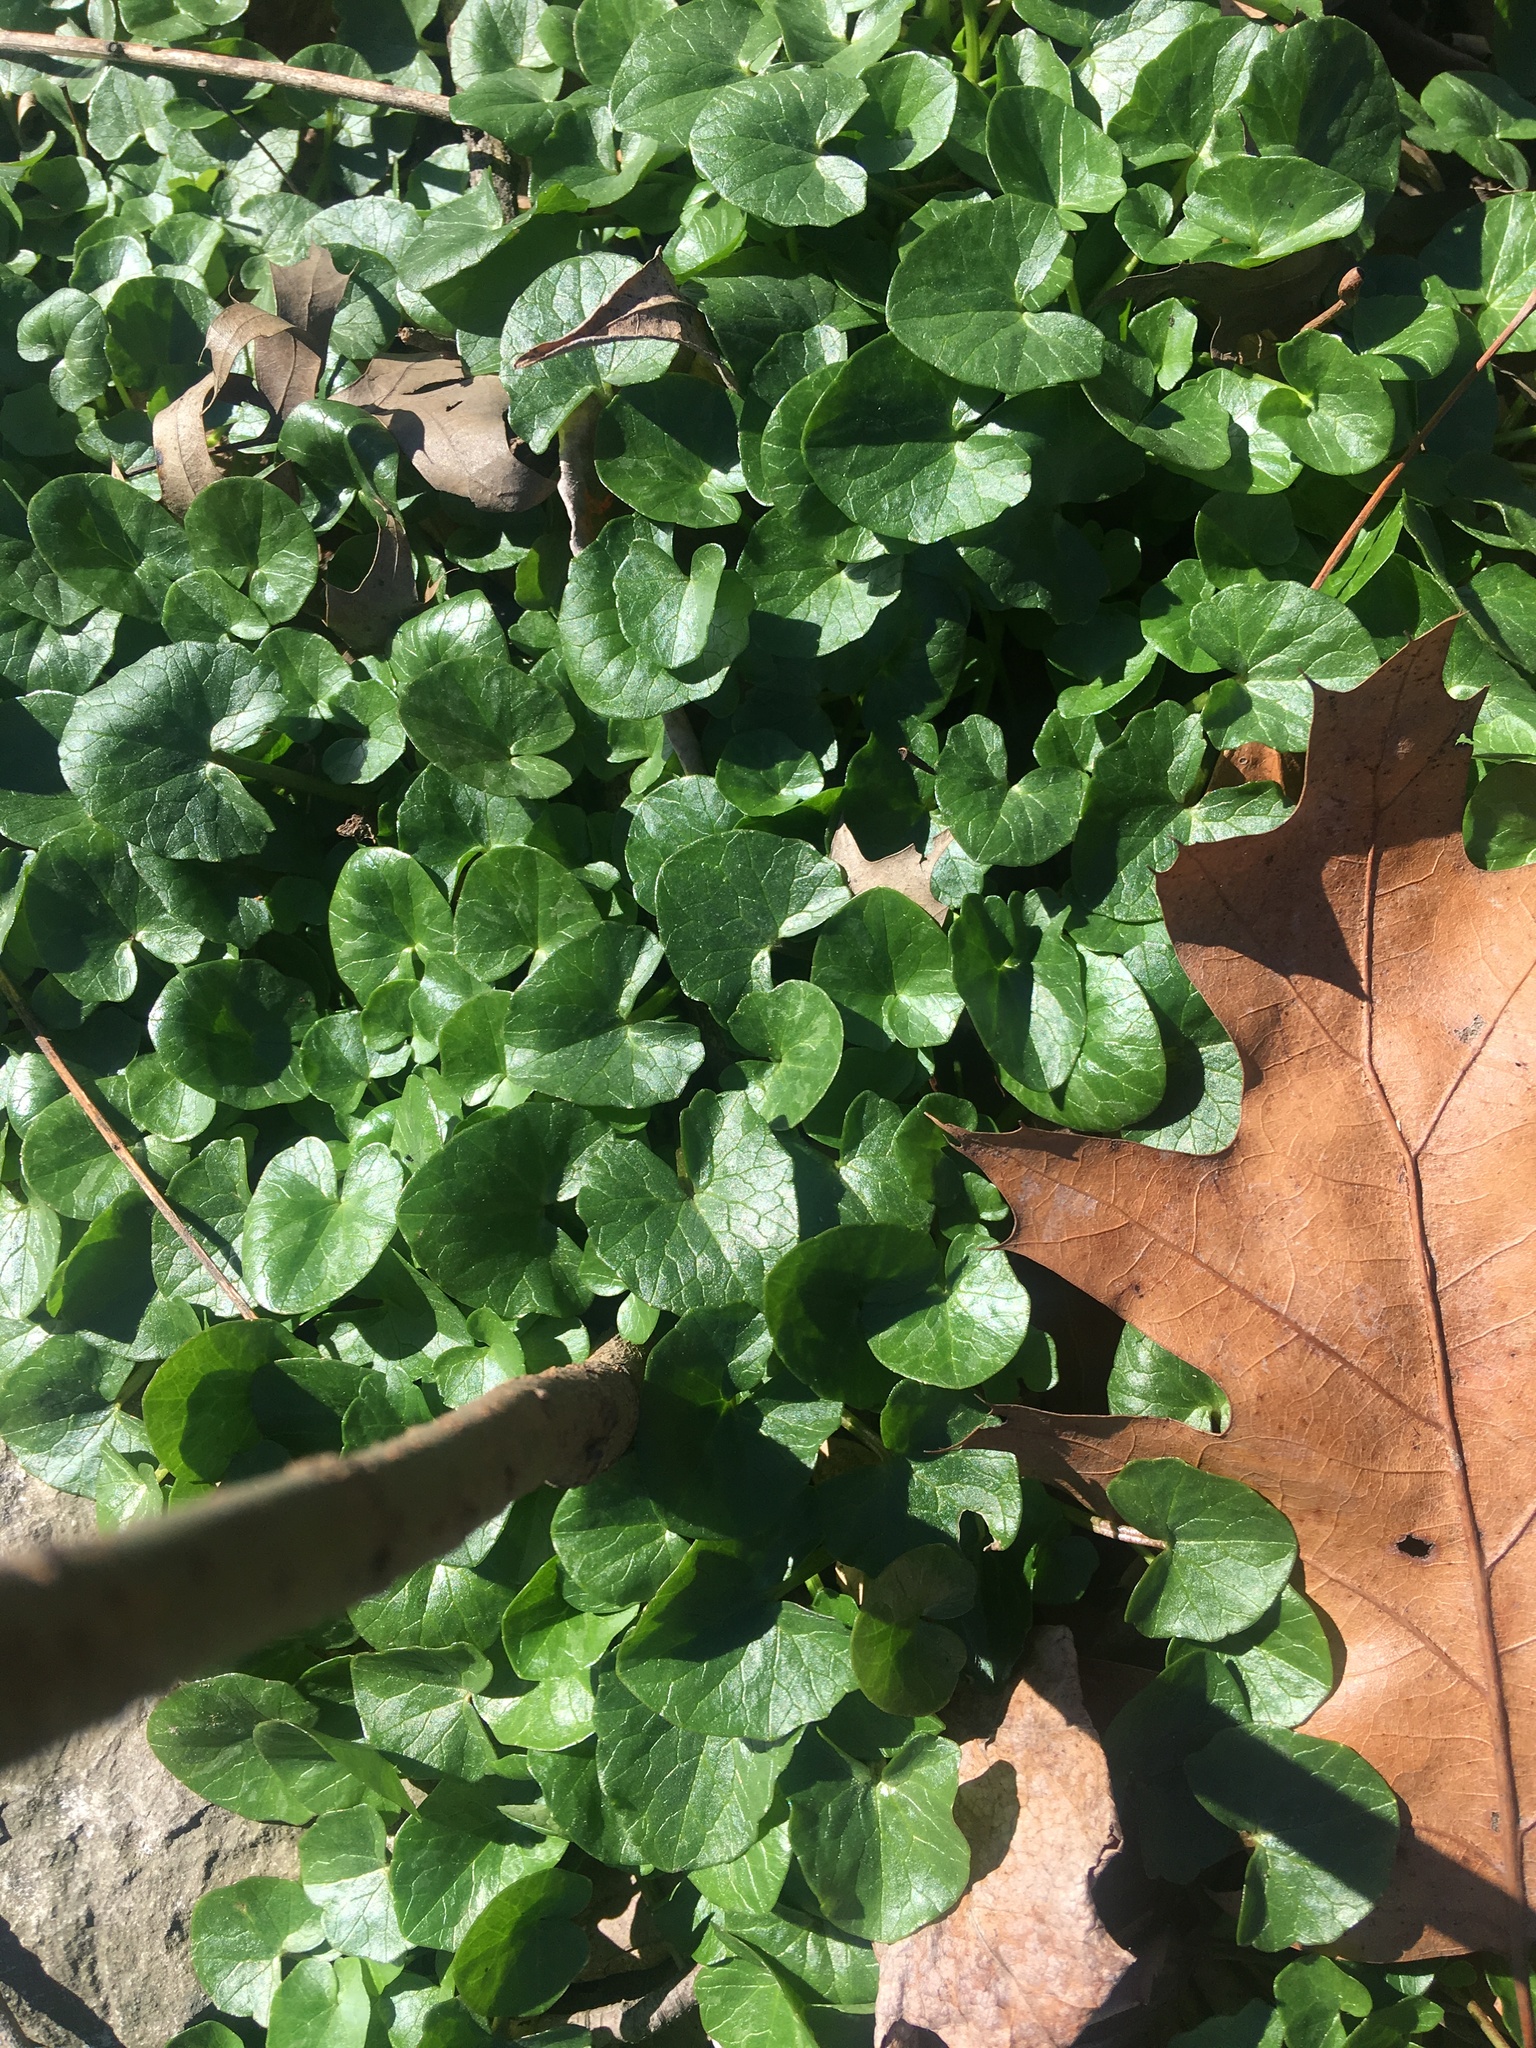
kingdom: Plantae
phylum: Tracheophyta
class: Magnoliopsida
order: Ranunculales
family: Ranunculaceae
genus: Ficaria
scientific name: Ficaria verna
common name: Lesser celandine
